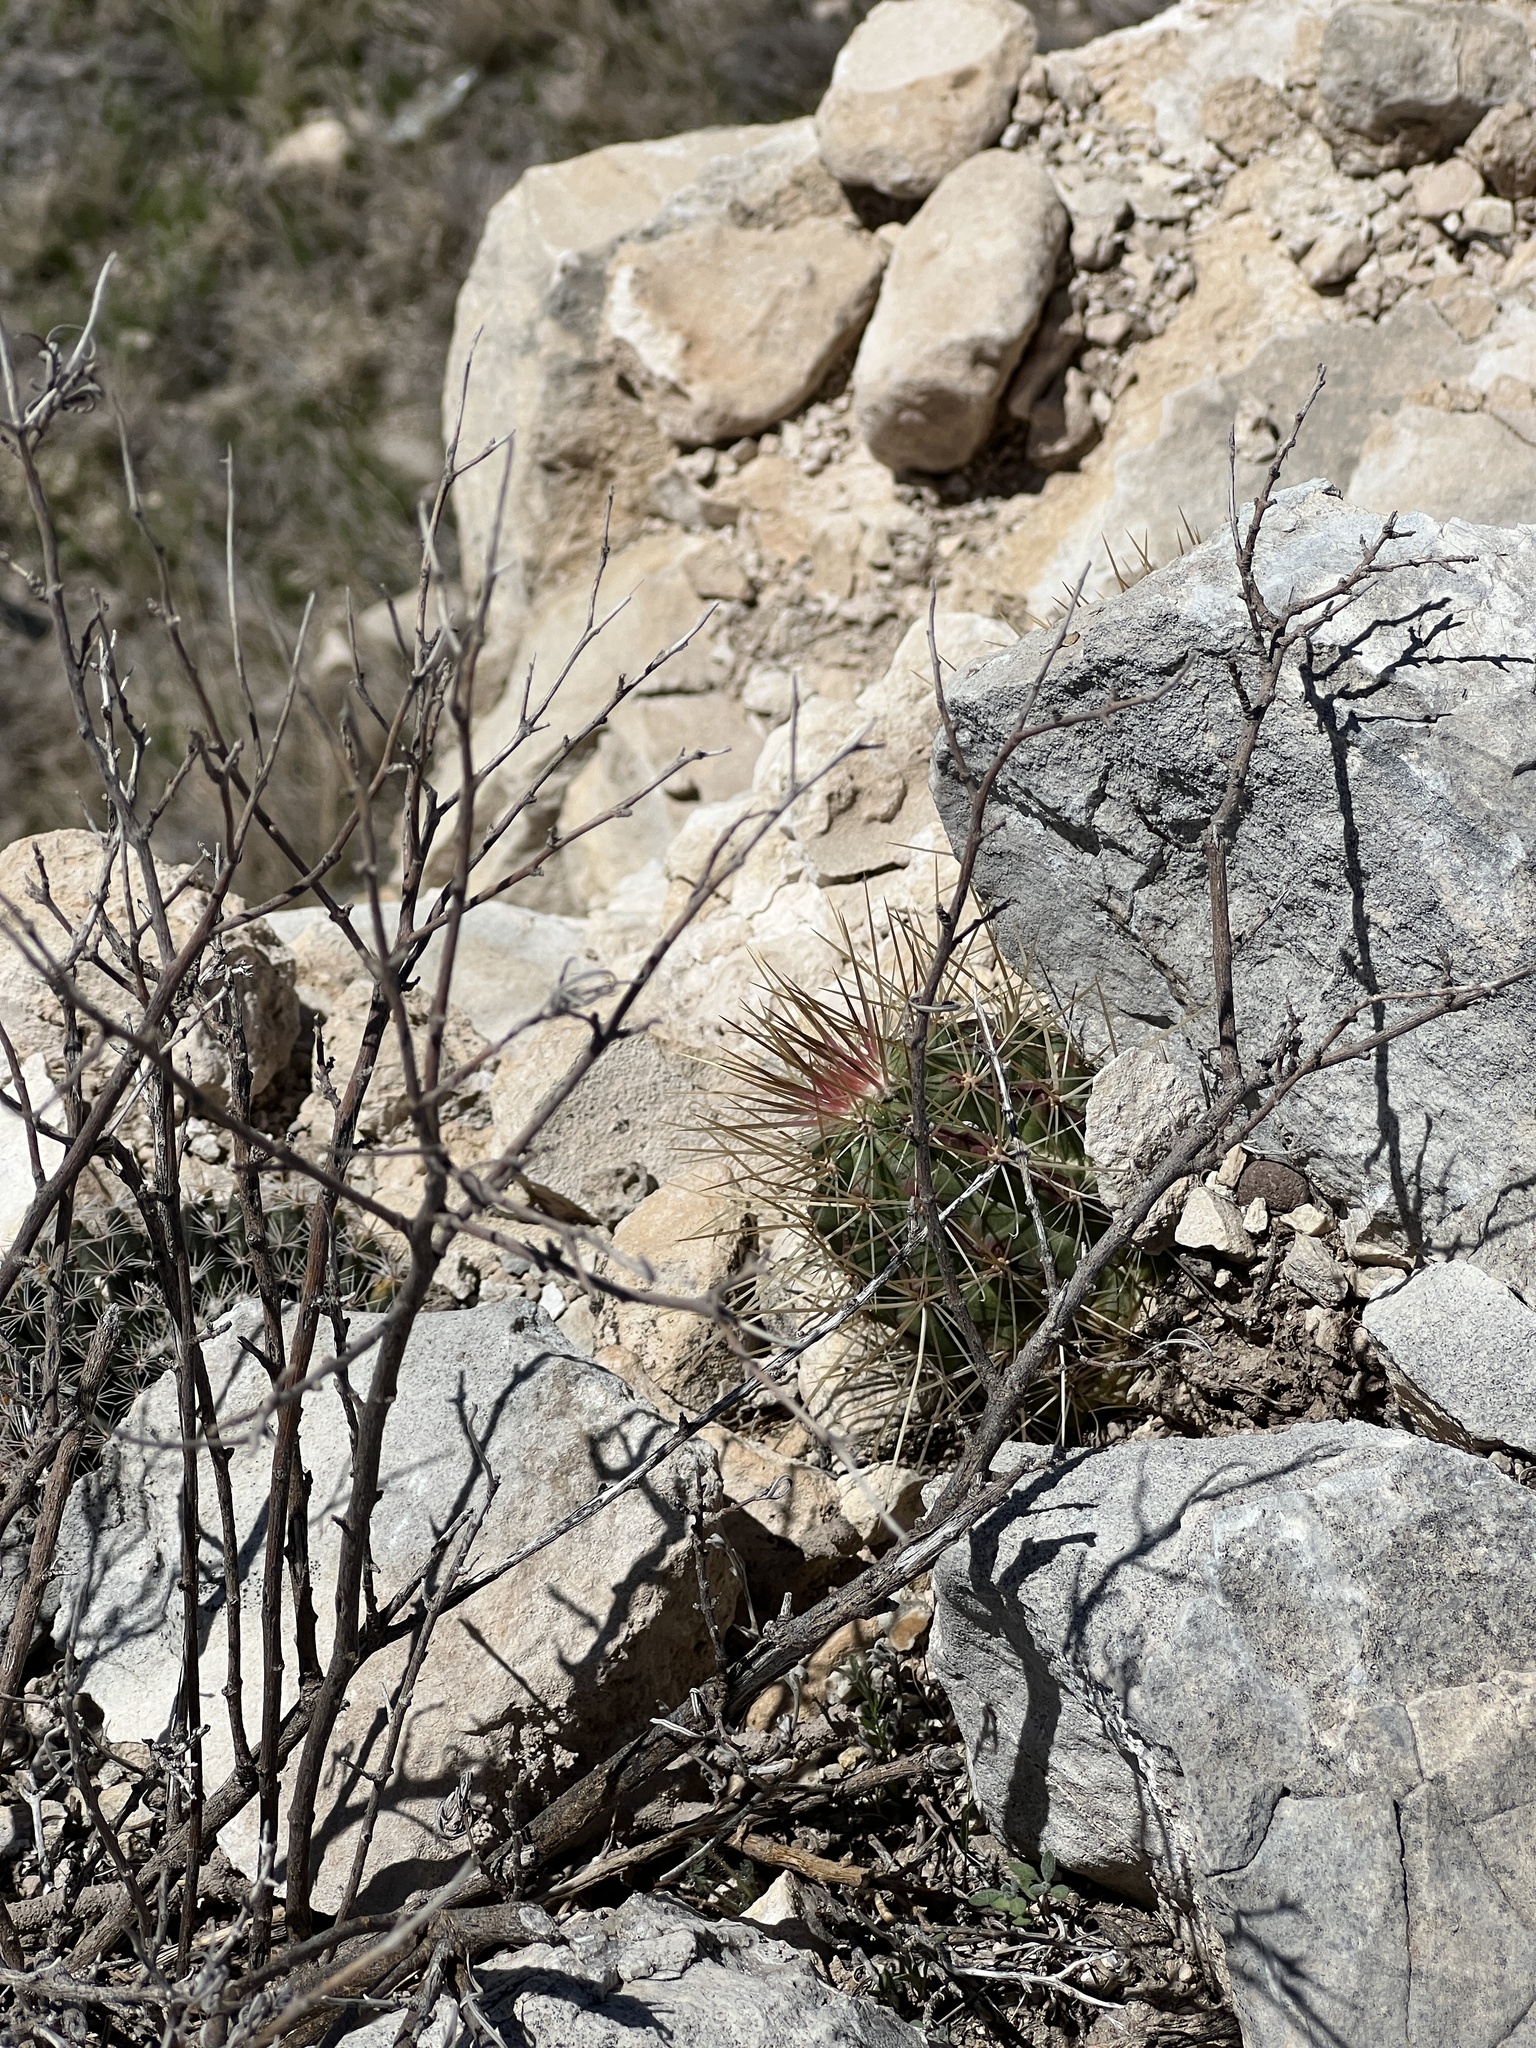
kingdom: Plantae
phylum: Tracheophyta
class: Magnoliopsida
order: Caryophyllales
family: Cactaceae
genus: Echinocereus
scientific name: Echinocereus stramineus
